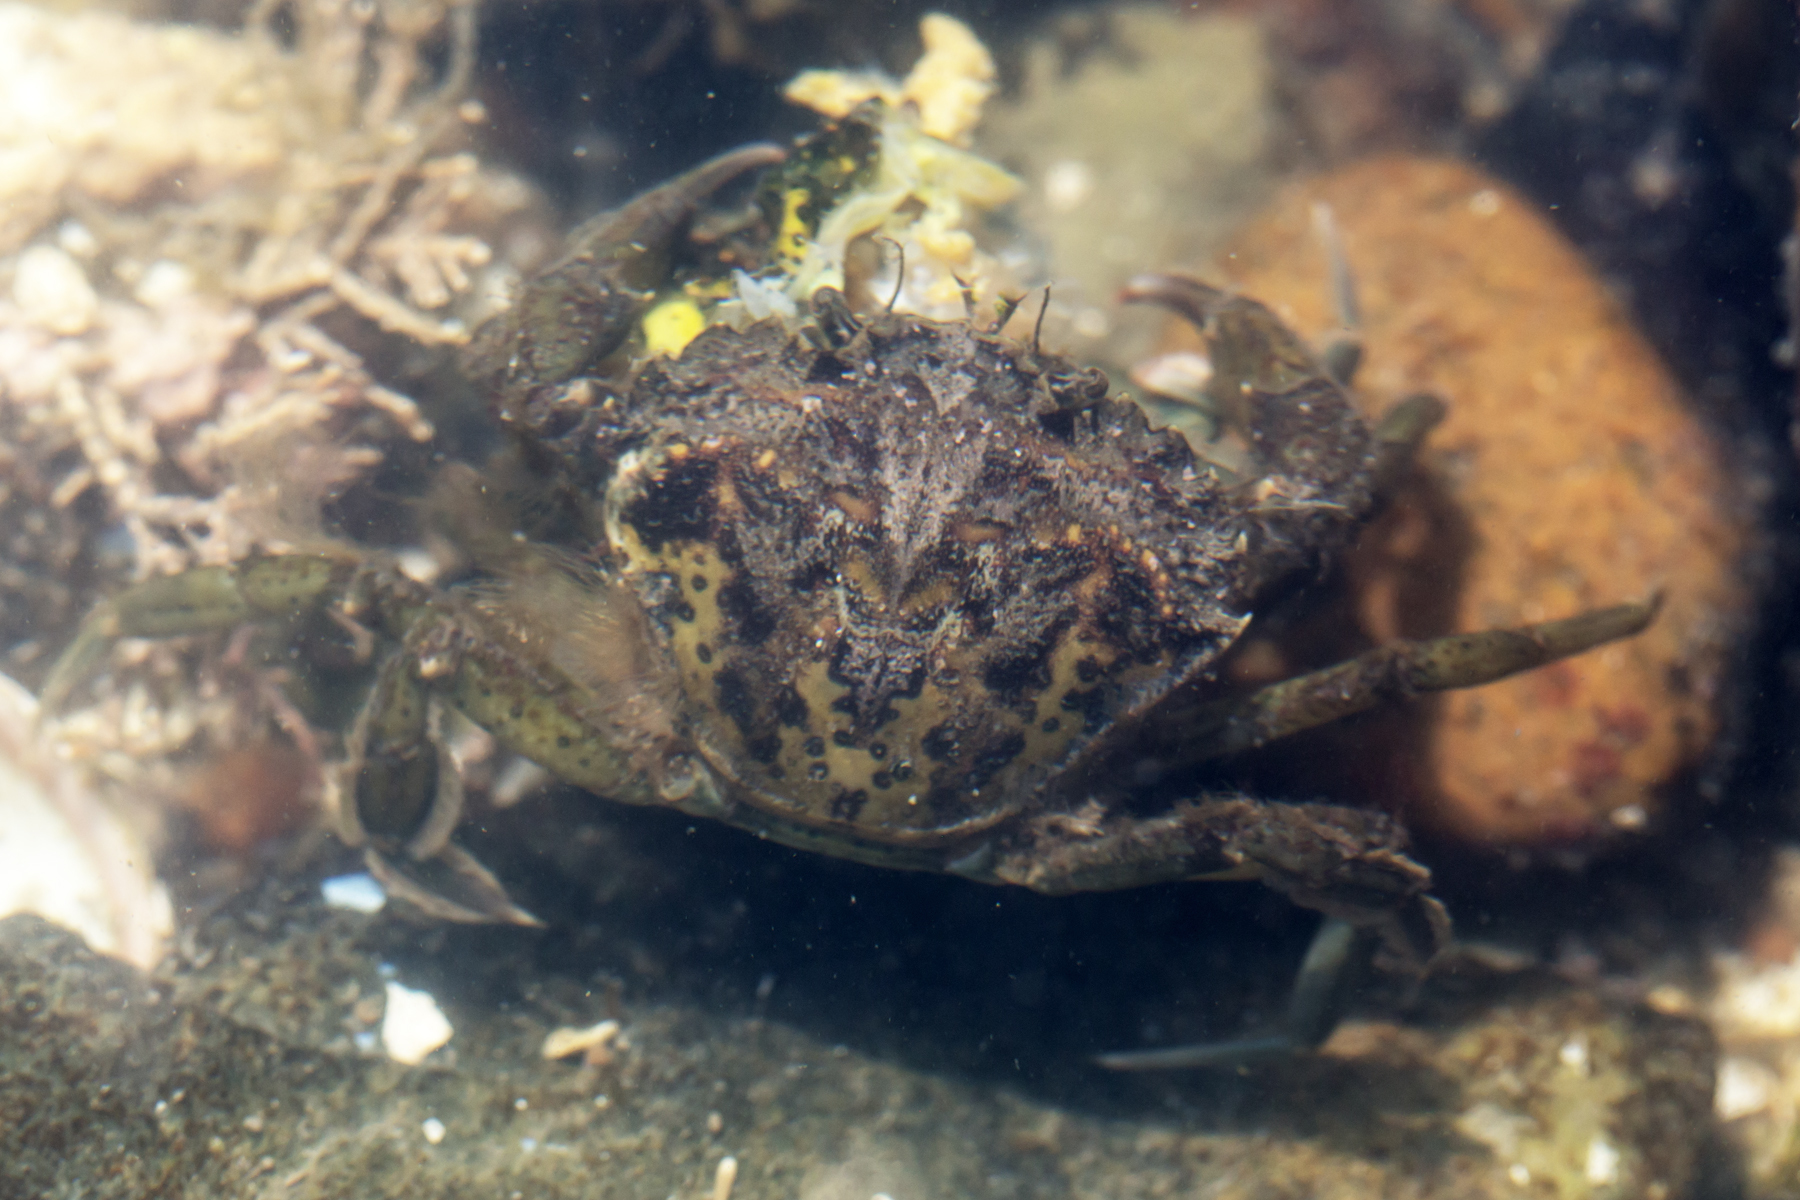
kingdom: Animalia
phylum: Arthropoda
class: Malacostraca
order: Decapoda
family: Carcinidae
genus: Carcinus
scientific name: Carcinus maenas
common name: European green crab
